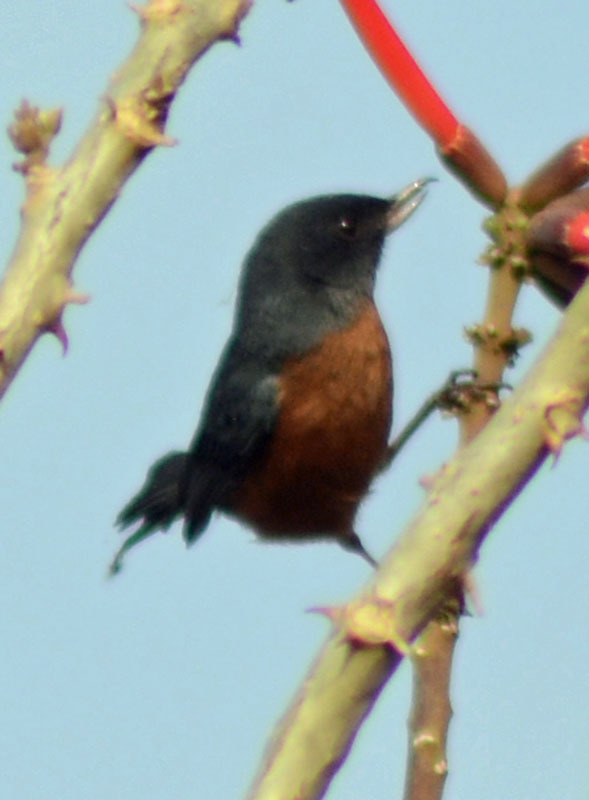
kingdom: Animalia
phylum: Chordata
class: Aves
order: Passeriformes
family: Thraupidae
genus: Diglossa
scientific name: Diglossa baritula
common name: Cinnamon-bellied flowerpiercer
